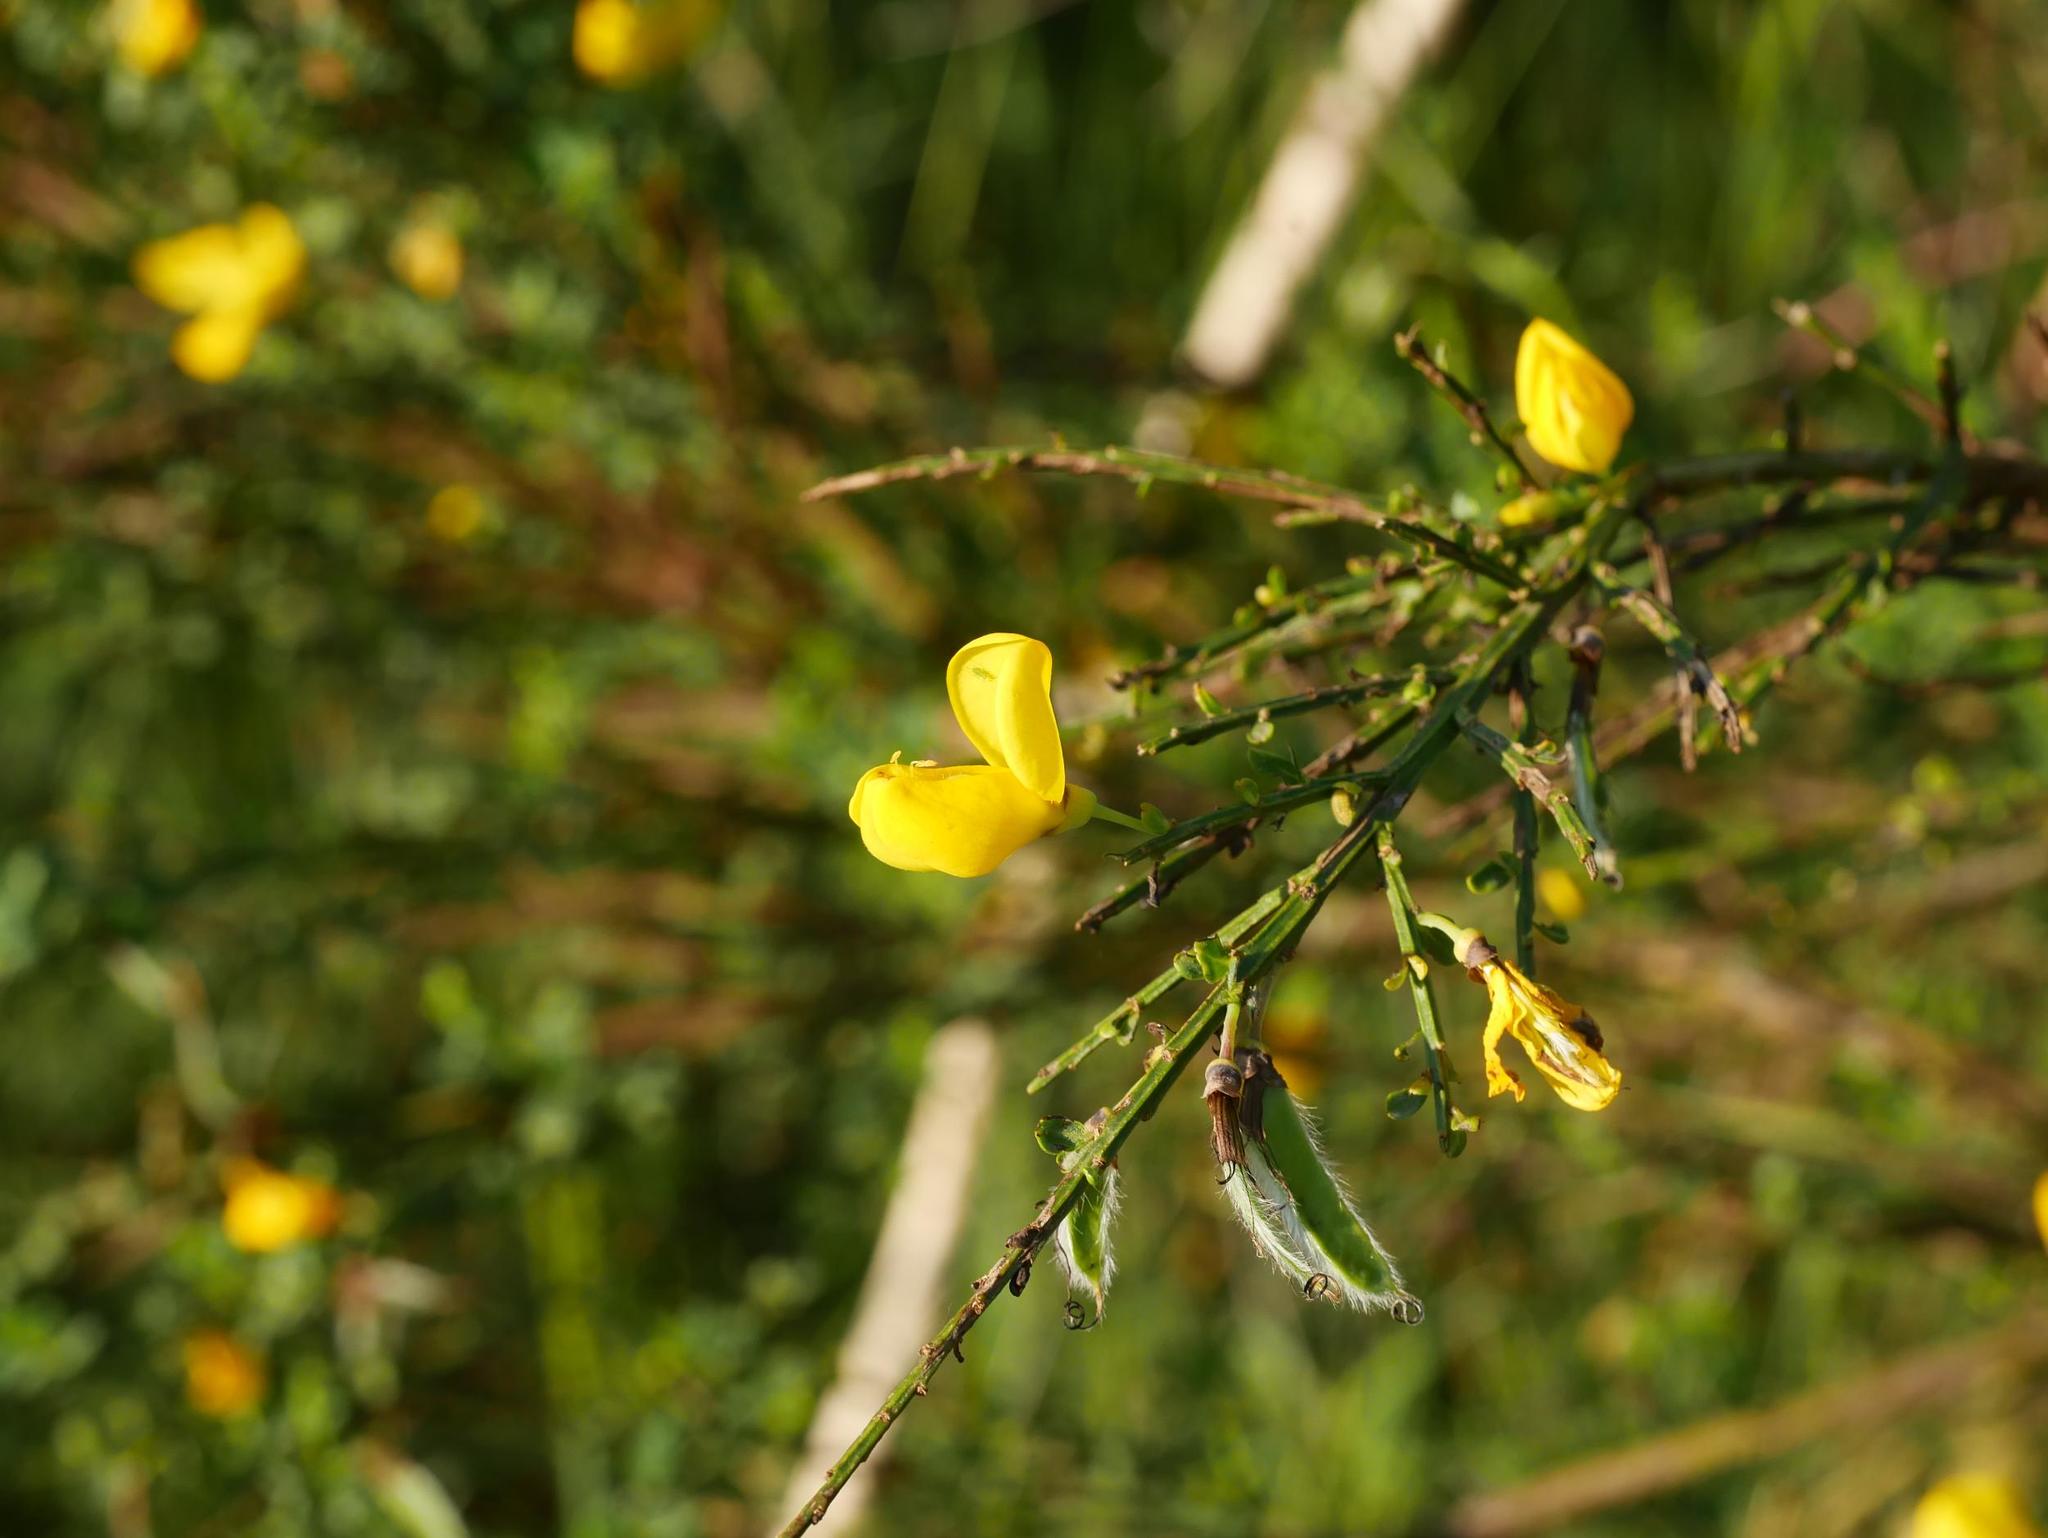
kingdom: Plantae
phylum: Tracheophyta
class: Magnoliopsida
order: Fabales
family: Fabaceae
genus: Cytisus
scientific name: Cytisus scoparius
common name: Scotch broom
